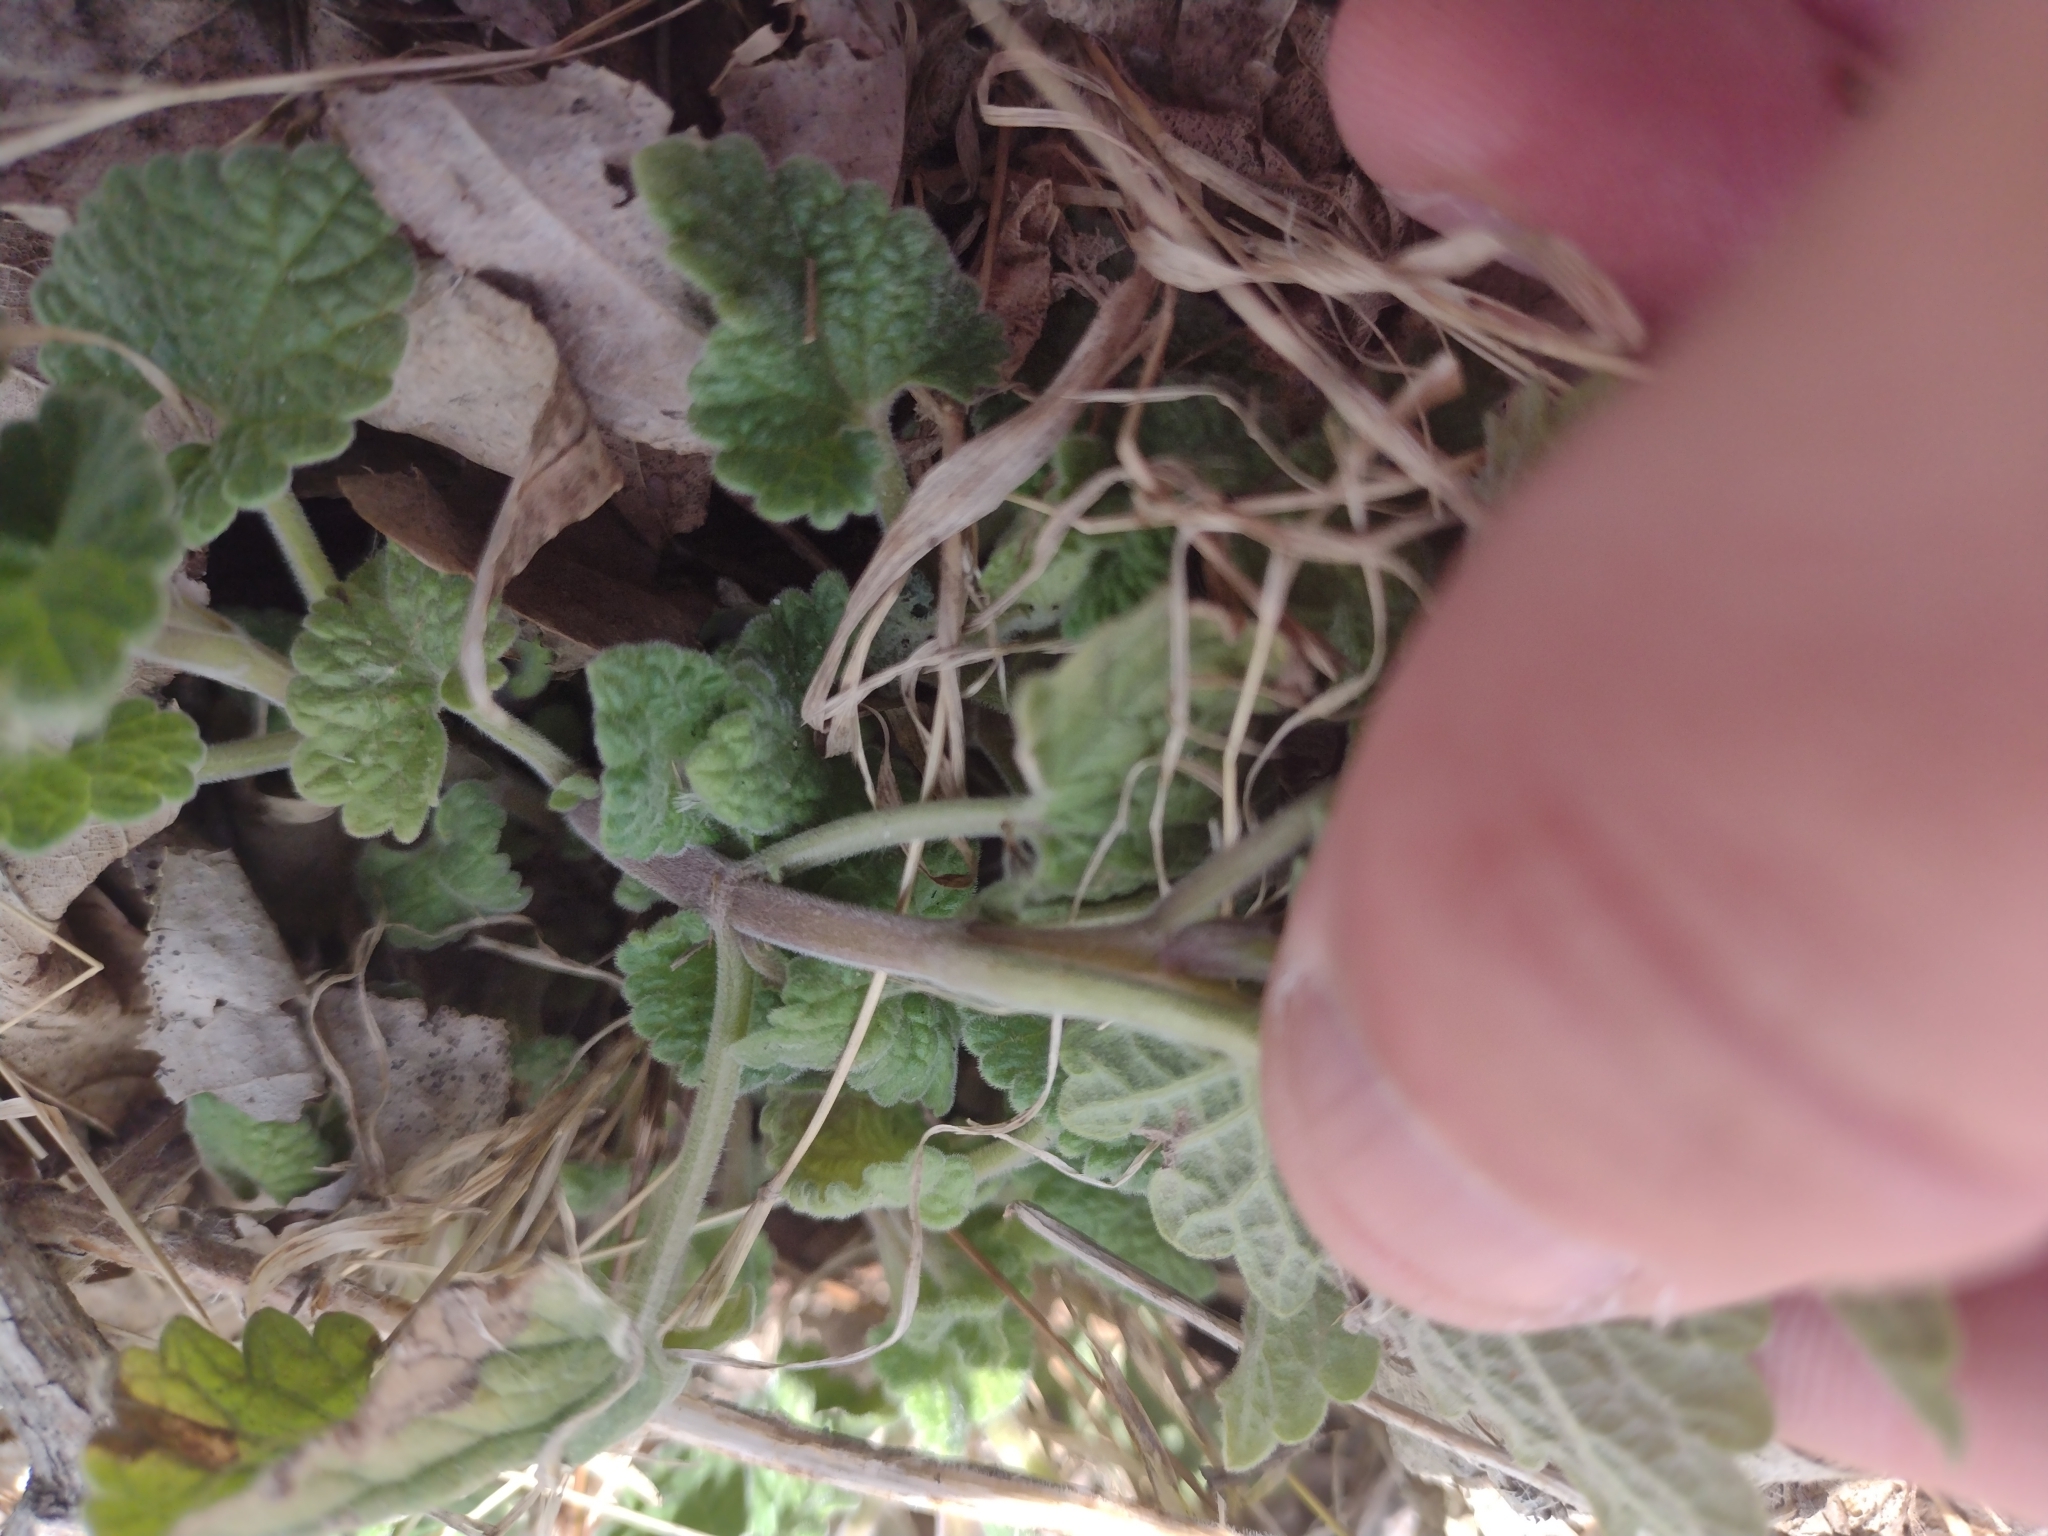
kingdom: Plantae
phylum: Tracheophyta
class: Magnoliopsida
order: Lamiales
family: Lamiaceae
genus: Nepeta
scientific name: Nepeta cataria
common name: Catnip
